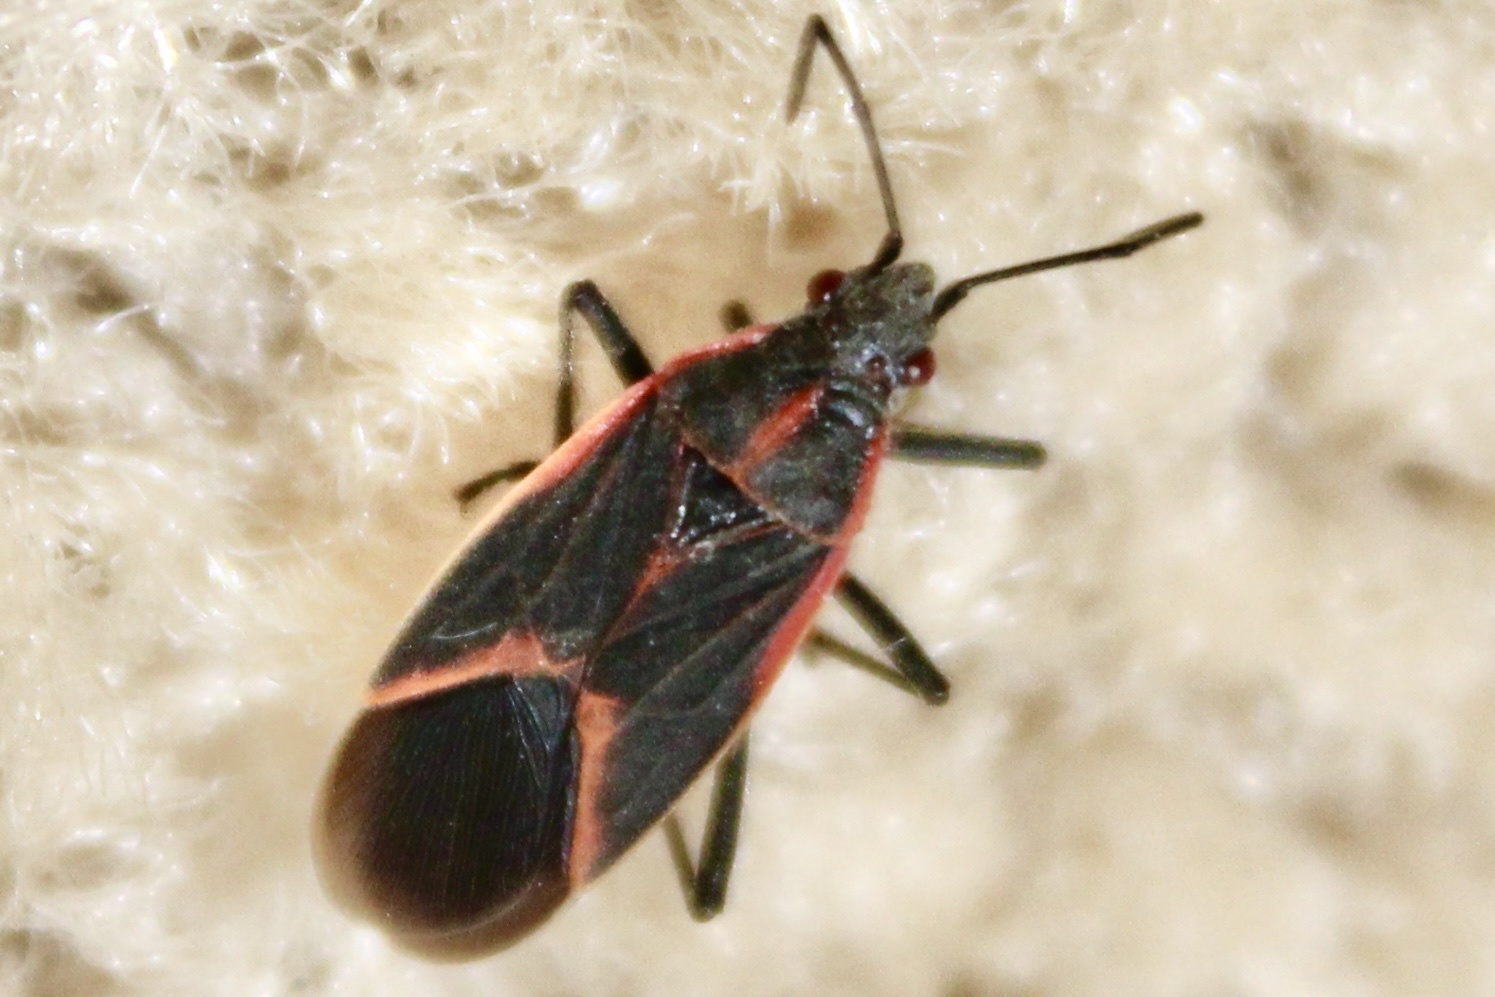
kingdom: Animalia
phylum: Arthropoda
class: Insecta
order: Hemiptera
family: Rhopalidae
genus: Boisea
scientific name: Boisea trivittata
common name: Boxelder bug
